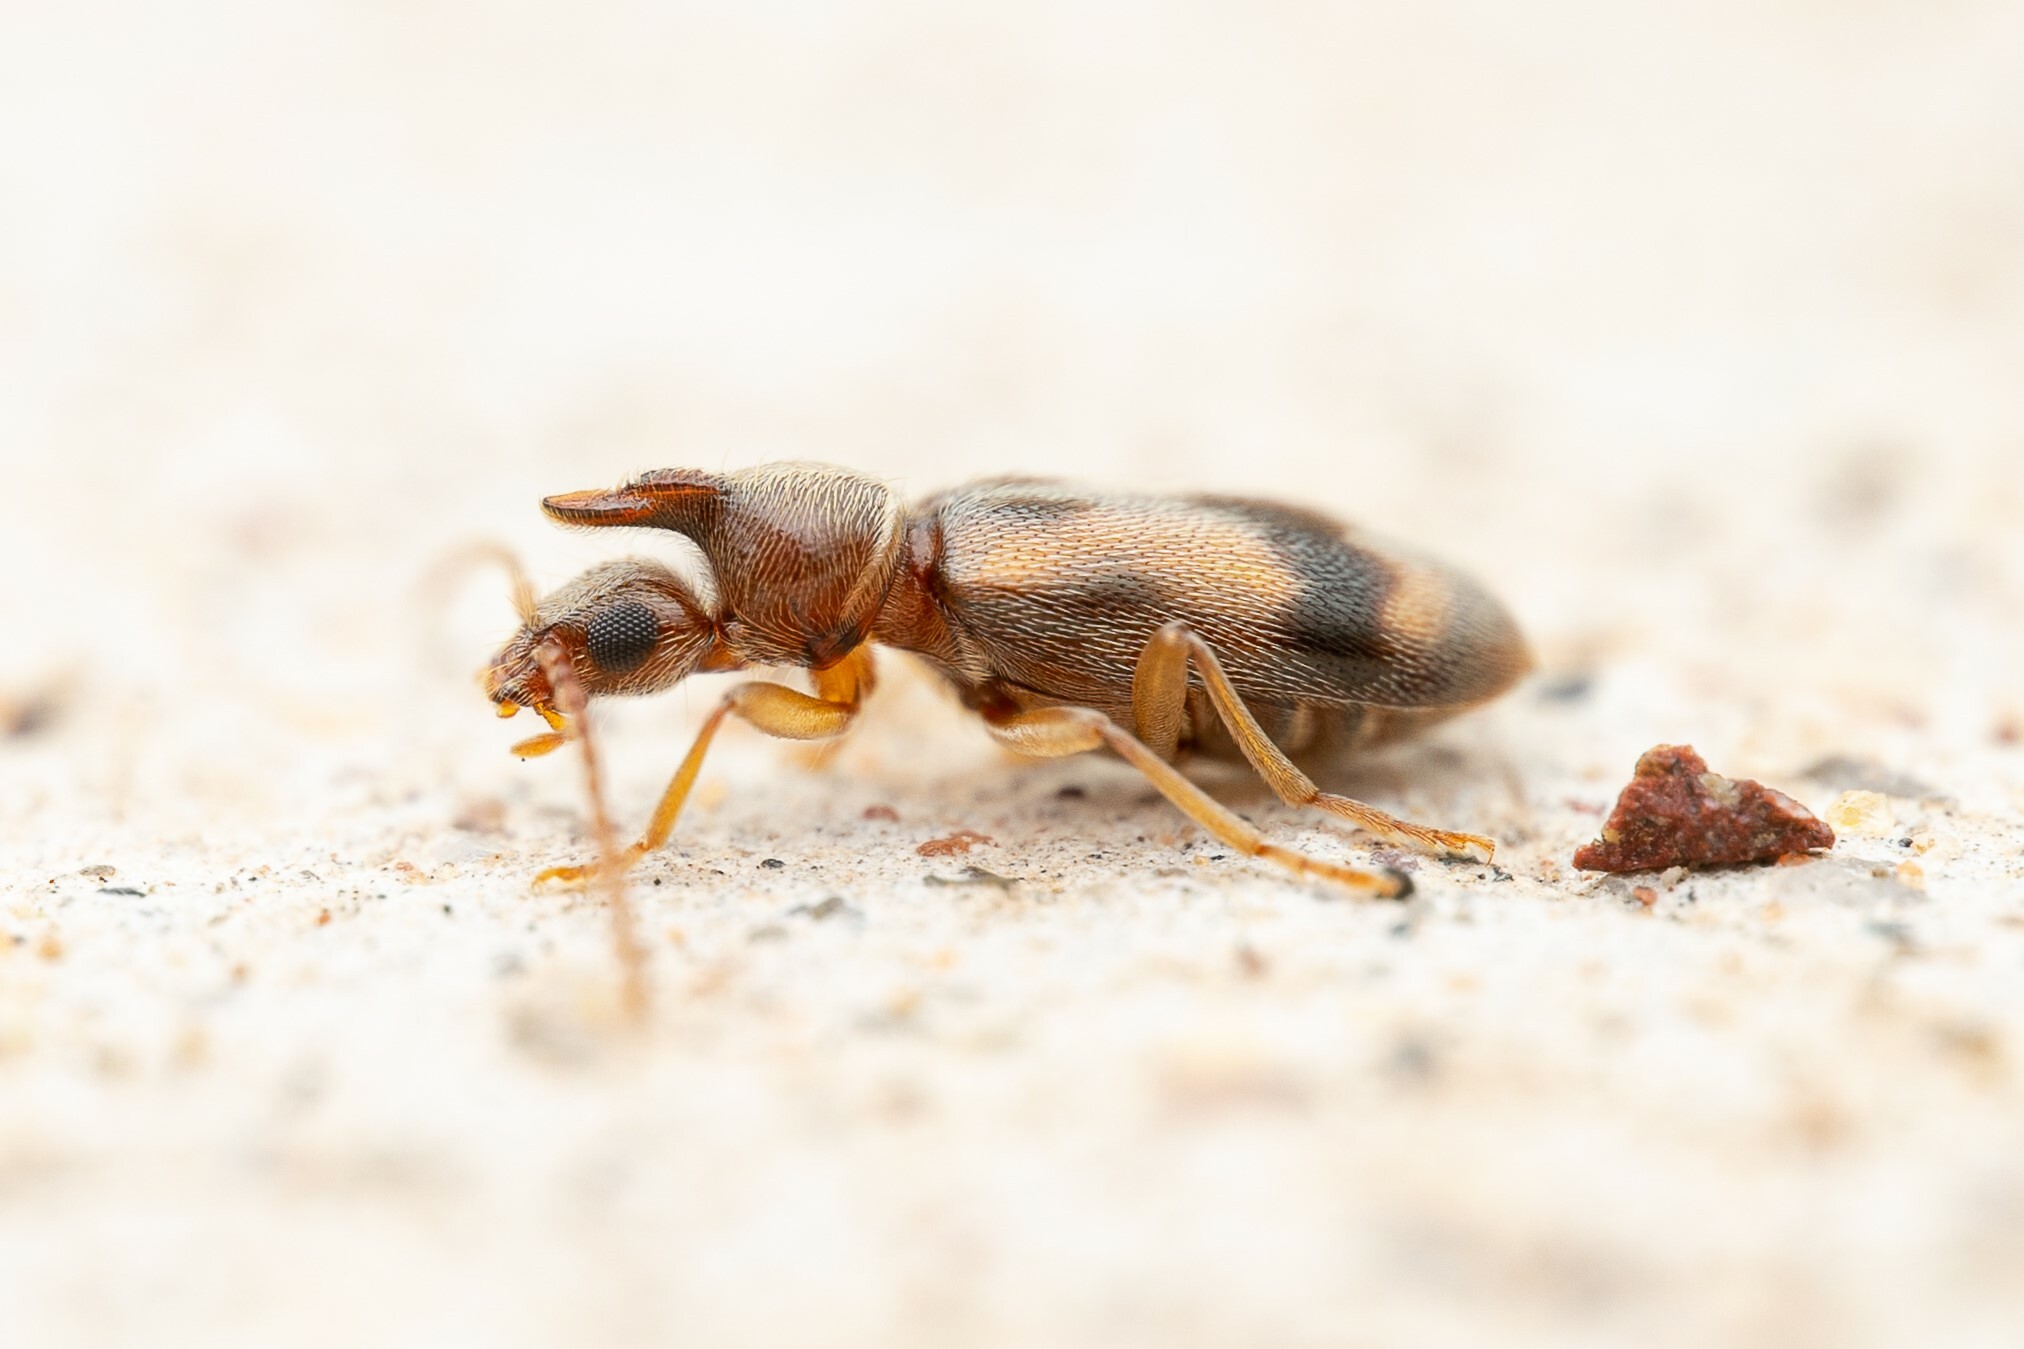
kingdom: Animalia
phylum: Arthropoda
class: Insecta
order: Coleoptera
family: Anthicidae
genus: Notoxus
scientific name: Notoxus
